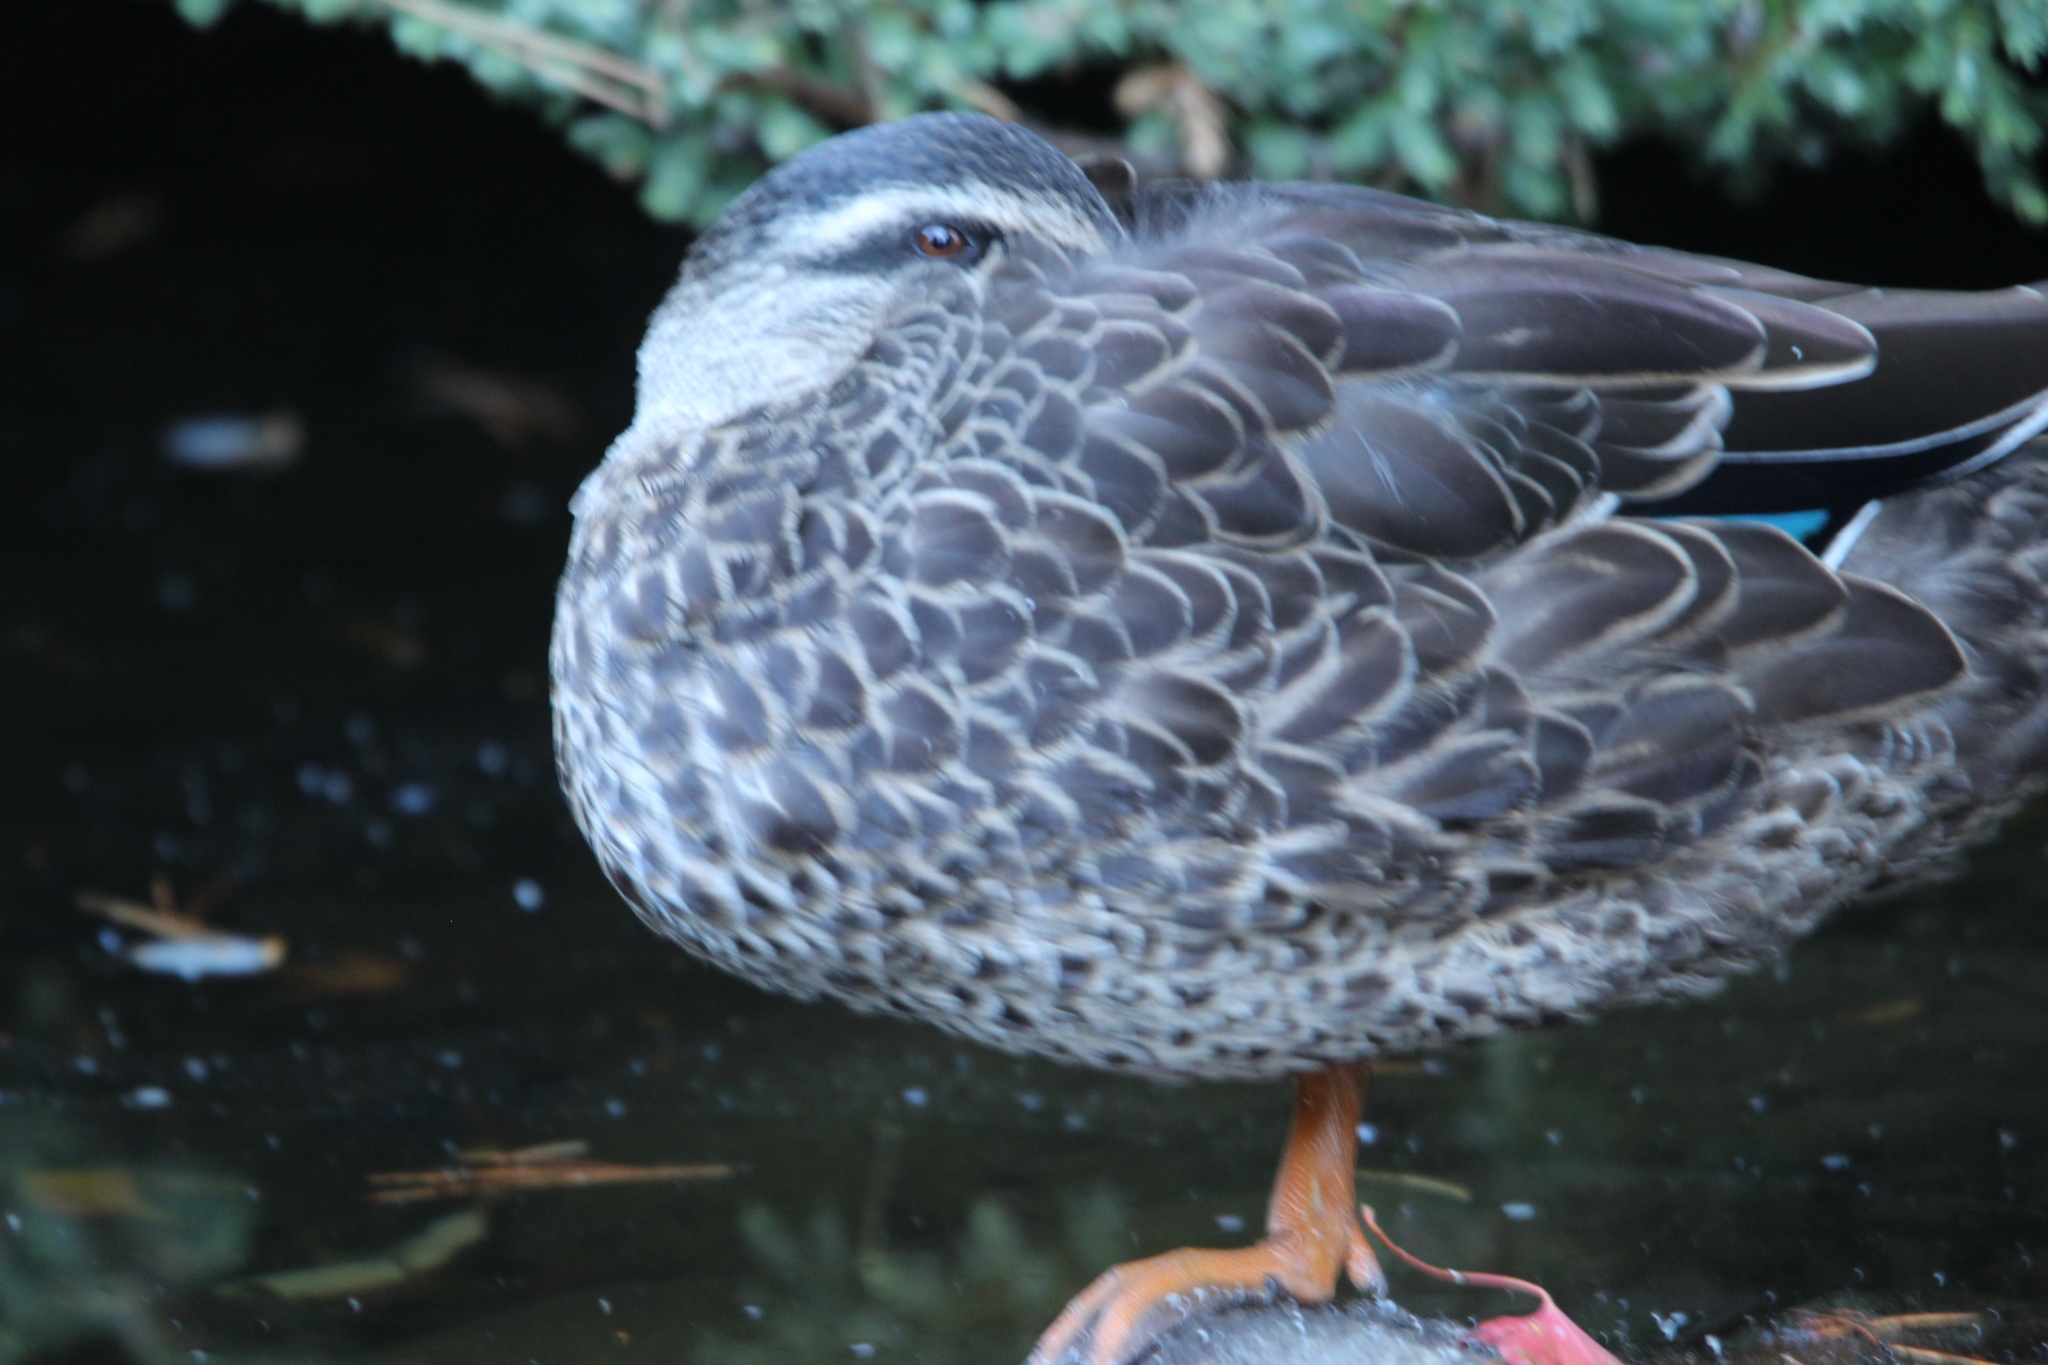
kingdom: Animalia
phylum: Chordata
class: Aves
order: Anseriformes
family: Anatidae
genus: Anas
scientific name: Anas
